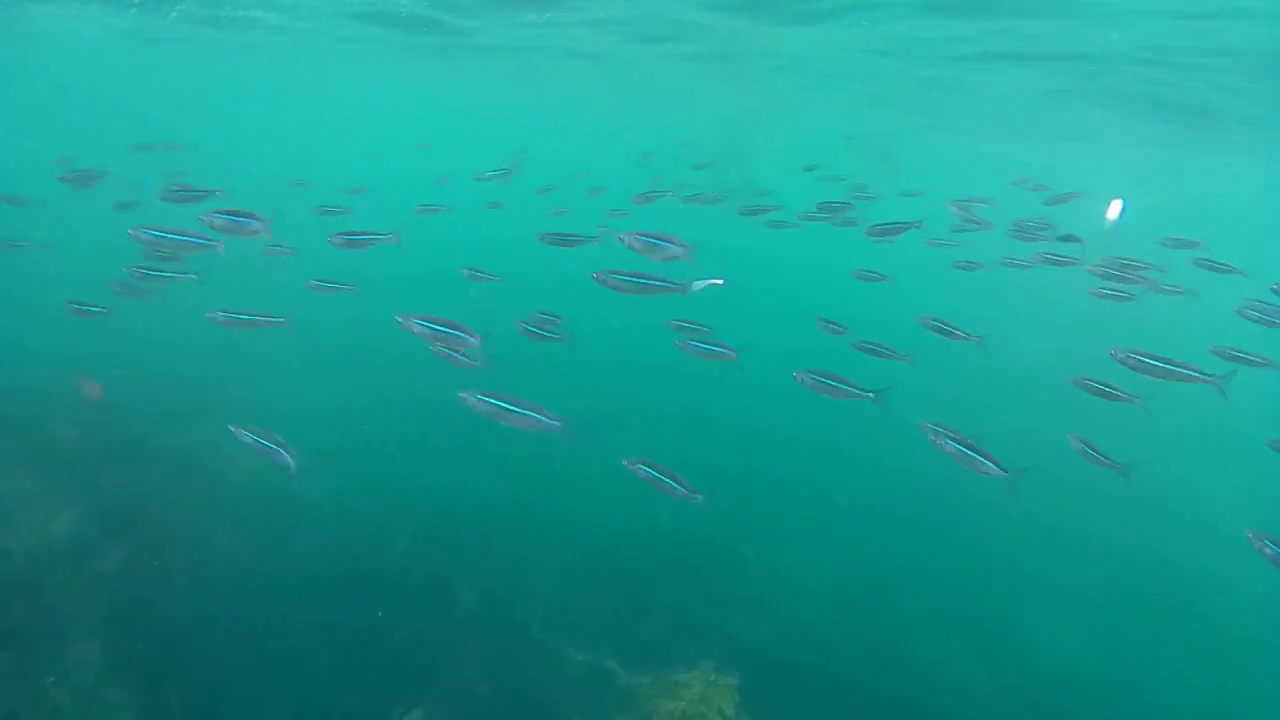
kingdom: Animalia
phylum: Chordata
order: Atheriniformes
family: Atherinopsidae
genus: Atherinops
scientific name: Atherinops affinis
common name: Topsmelt
